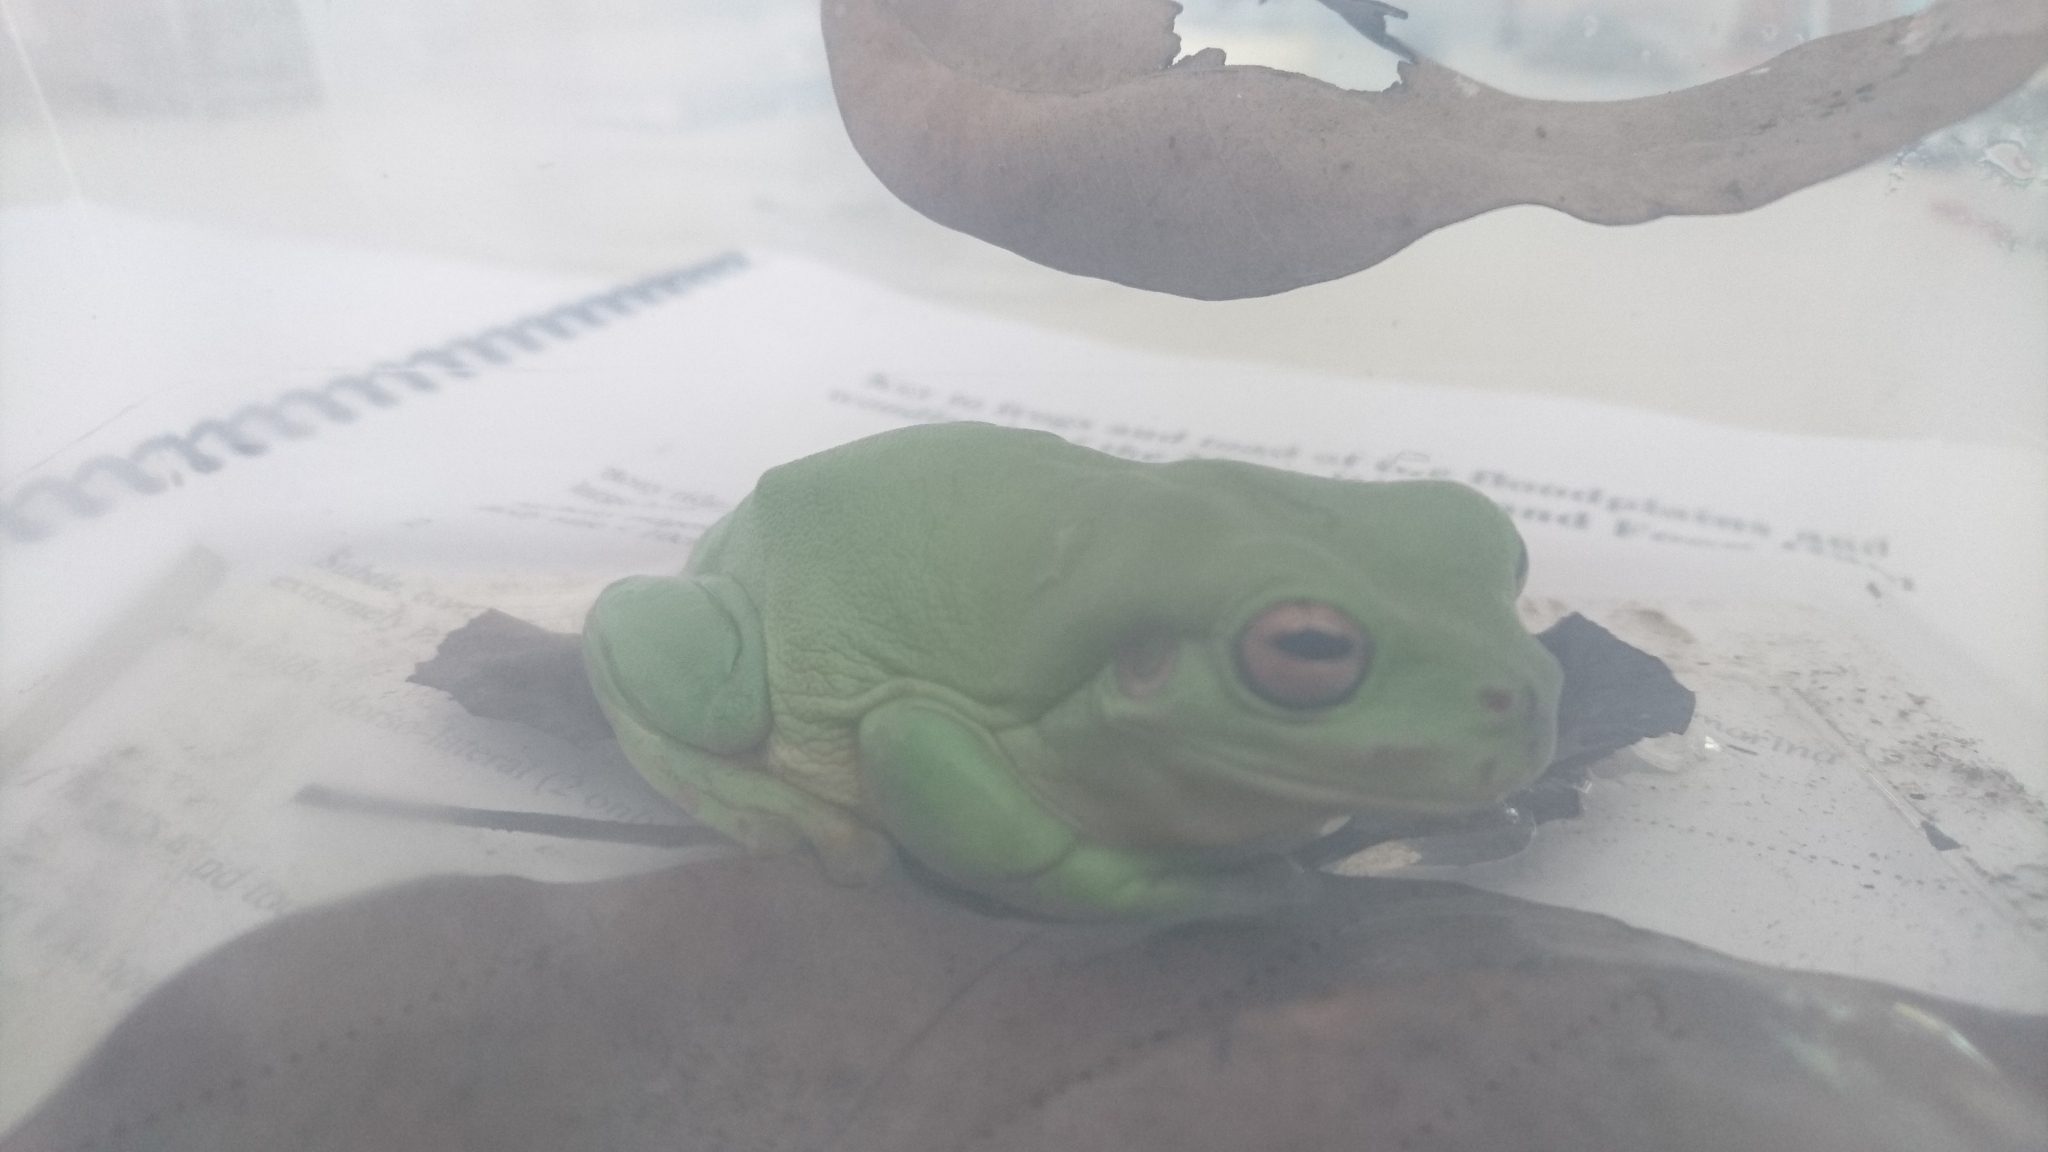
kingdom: Animalia
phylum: Chordata
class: Amphibia
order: Anura
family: Pelodryadidae
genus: Ranoidea
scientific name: Ranoidea caerulea
